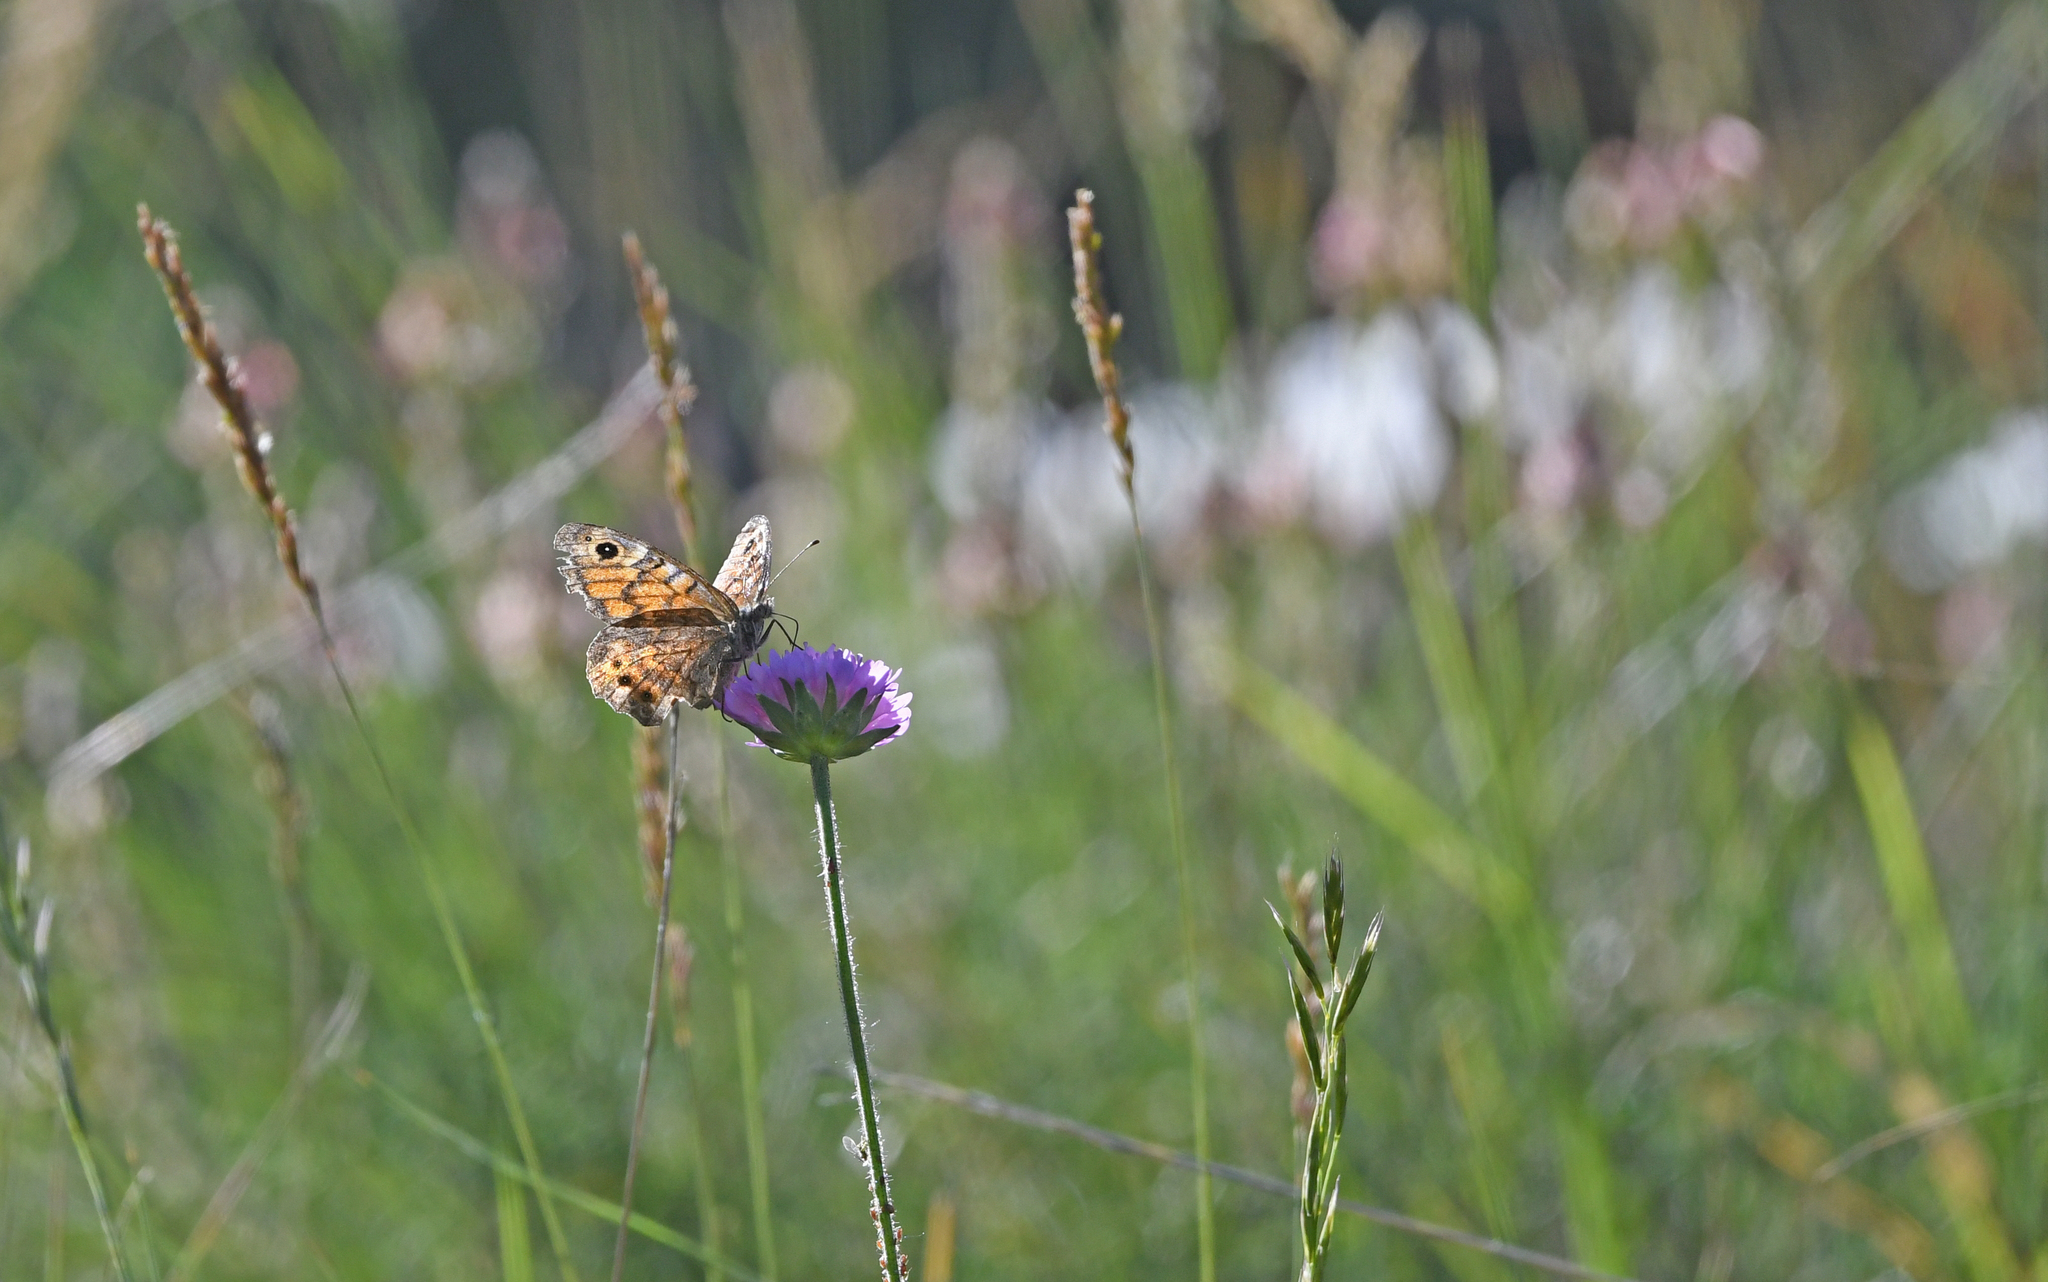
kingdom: Animalia
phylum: Arthropoda
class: Insecta
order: Lepidoptera
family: Nymphalidae
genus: Pararge
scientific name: Pararge Lasiommata megera
